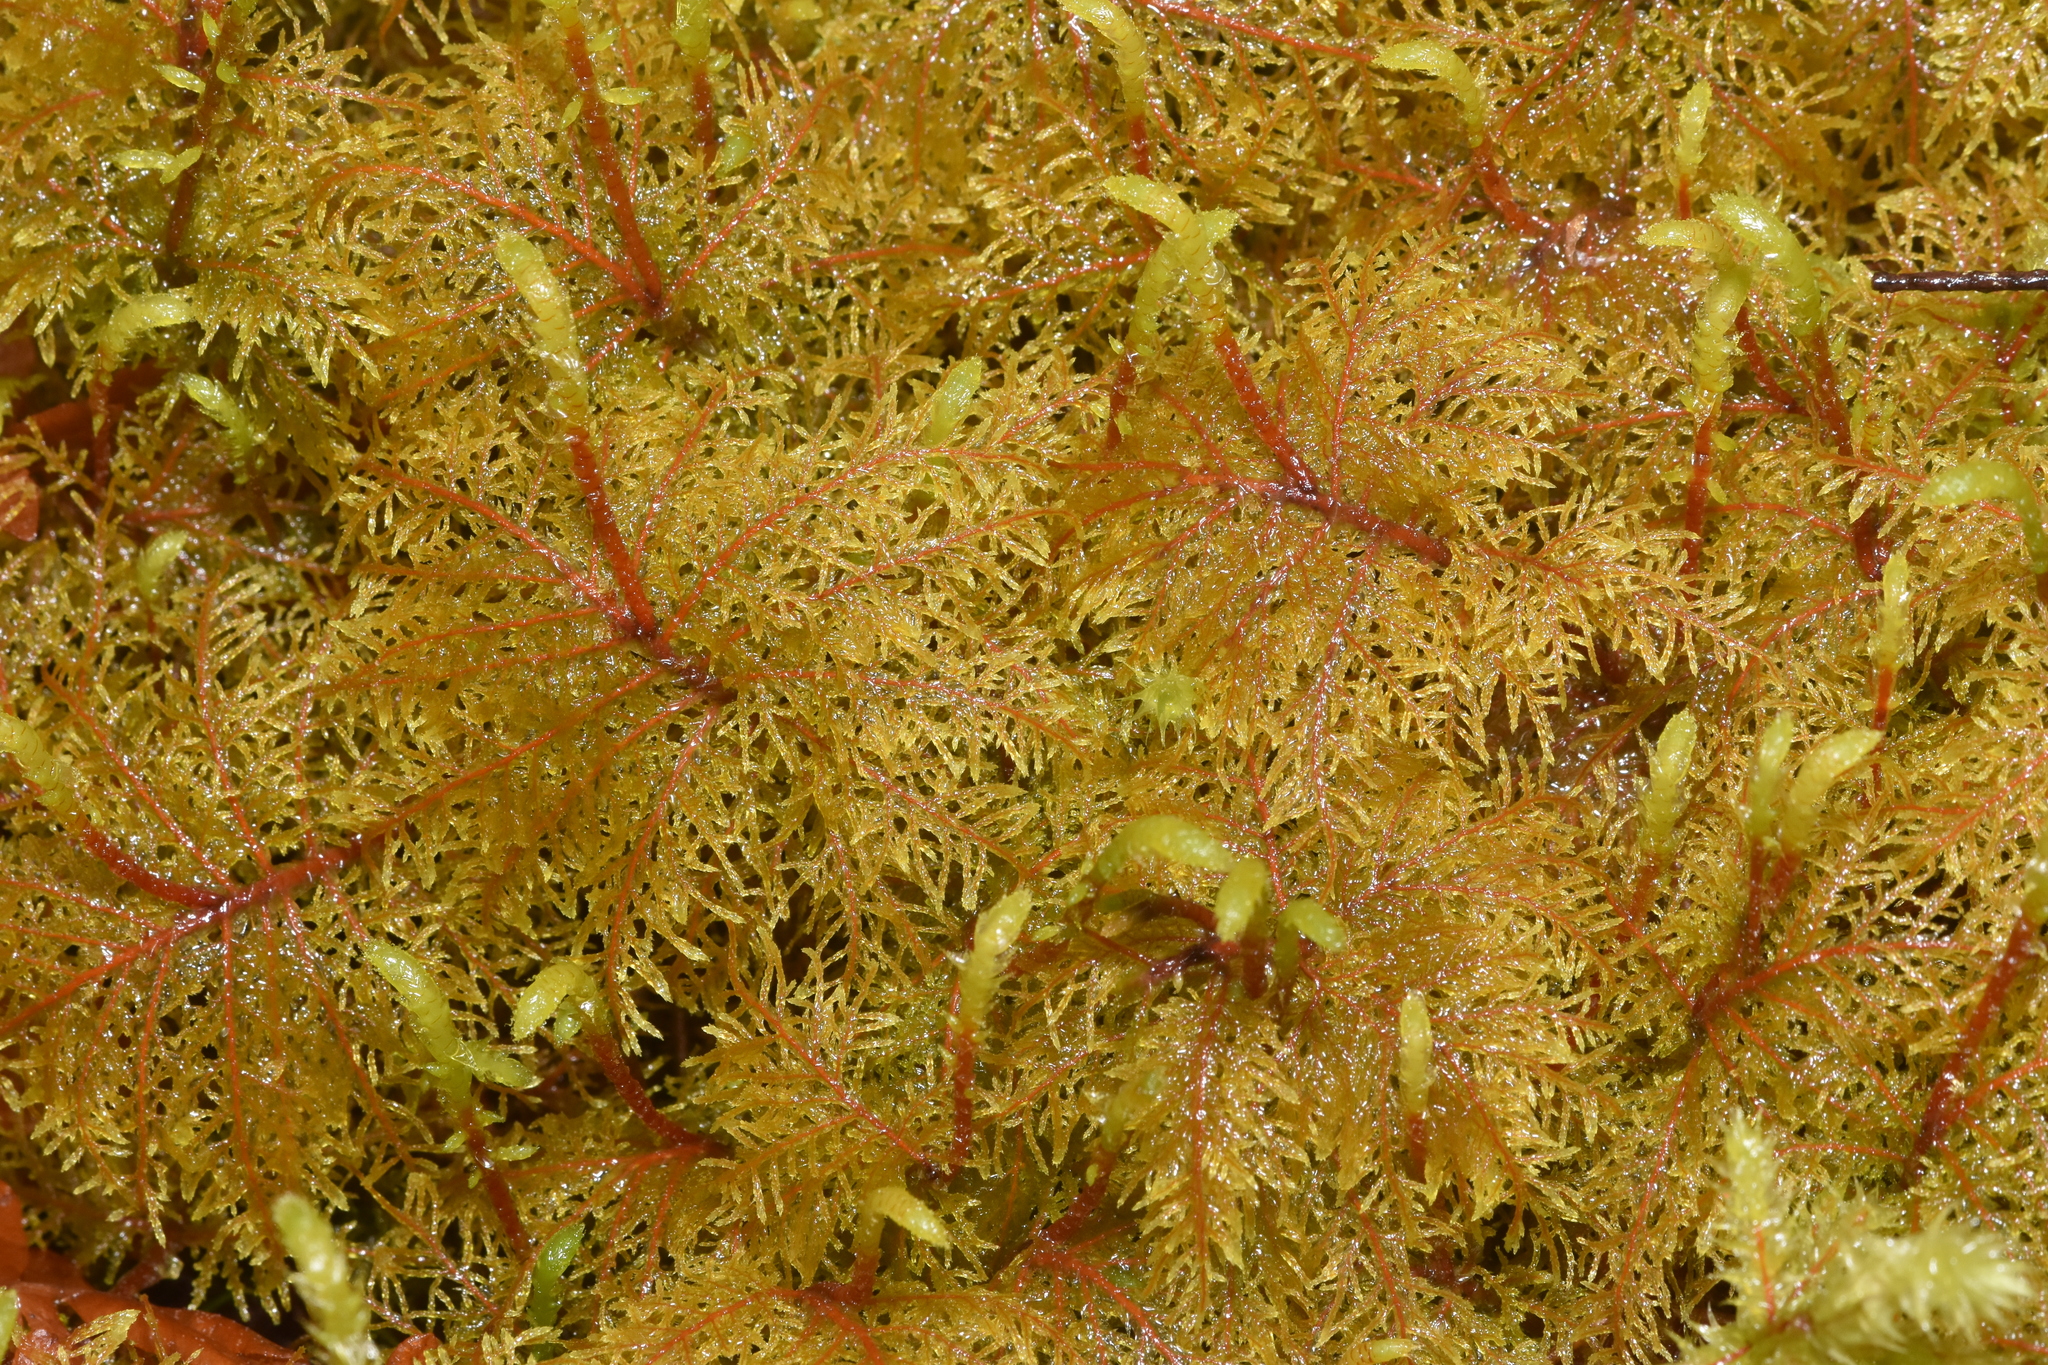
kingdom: Plantae
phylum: Bryophyta
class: Bryopsida
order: Hypnales
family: Hylocomiaceae
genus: Hylocomium
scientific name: Hylocomium splendens
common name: Stairstep moss
